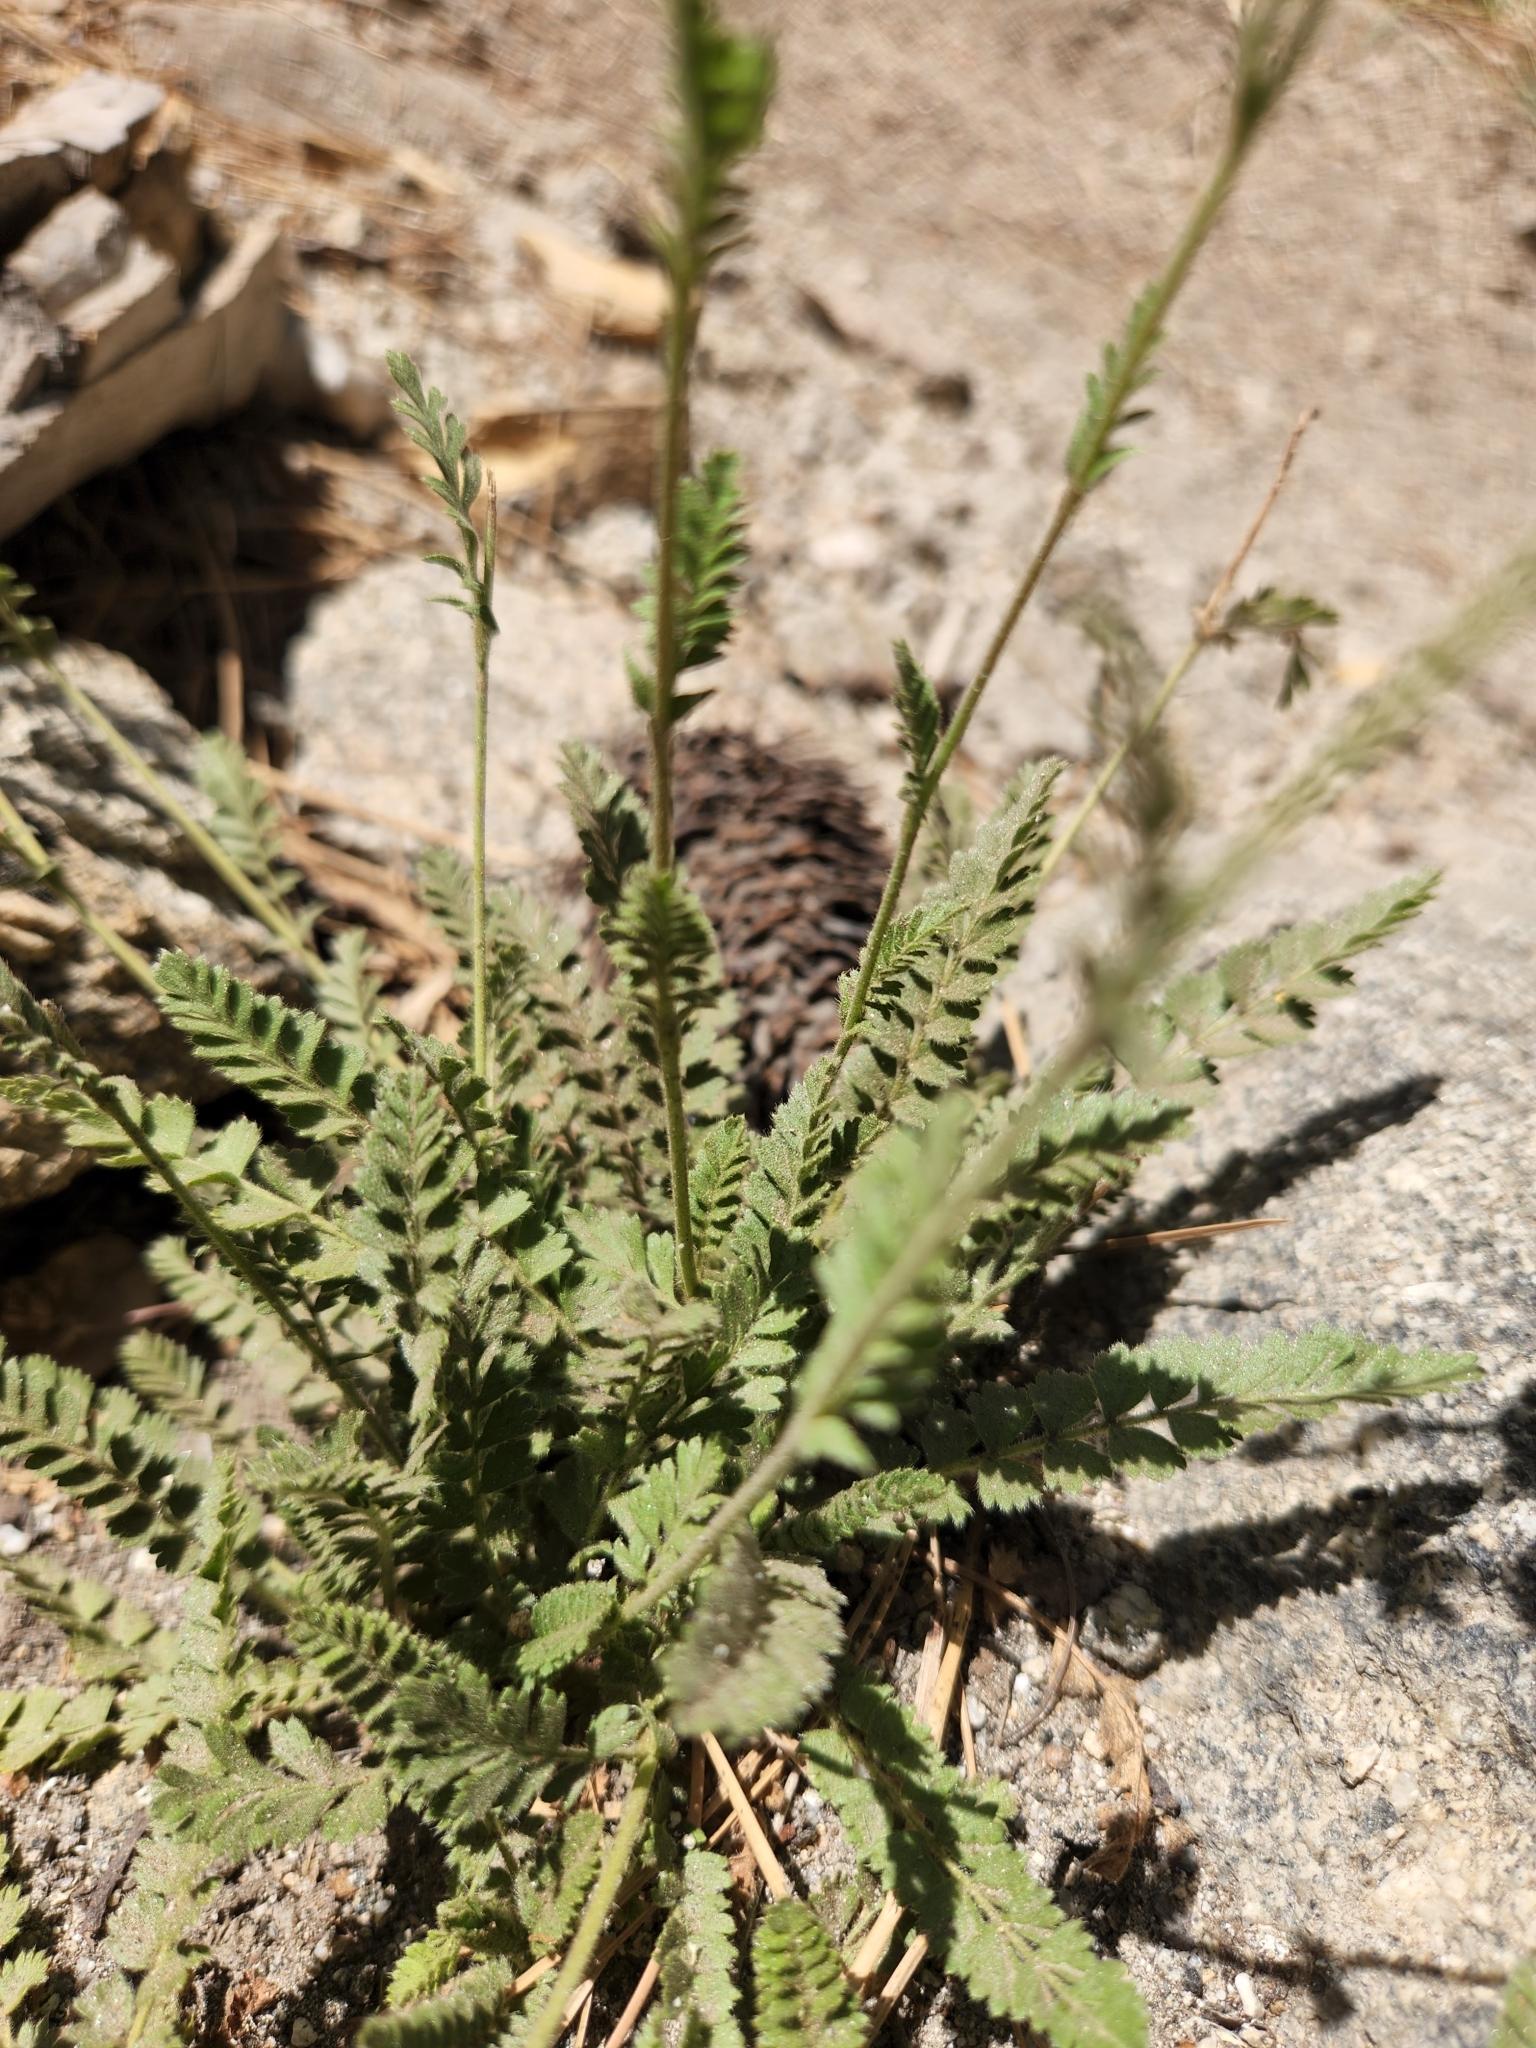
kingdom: Plantae
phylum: Tracheophyta
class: Magnoliopsida
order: Rosales
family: Rosaceae
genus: Potentilla
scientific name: Potentilla clevelandii
